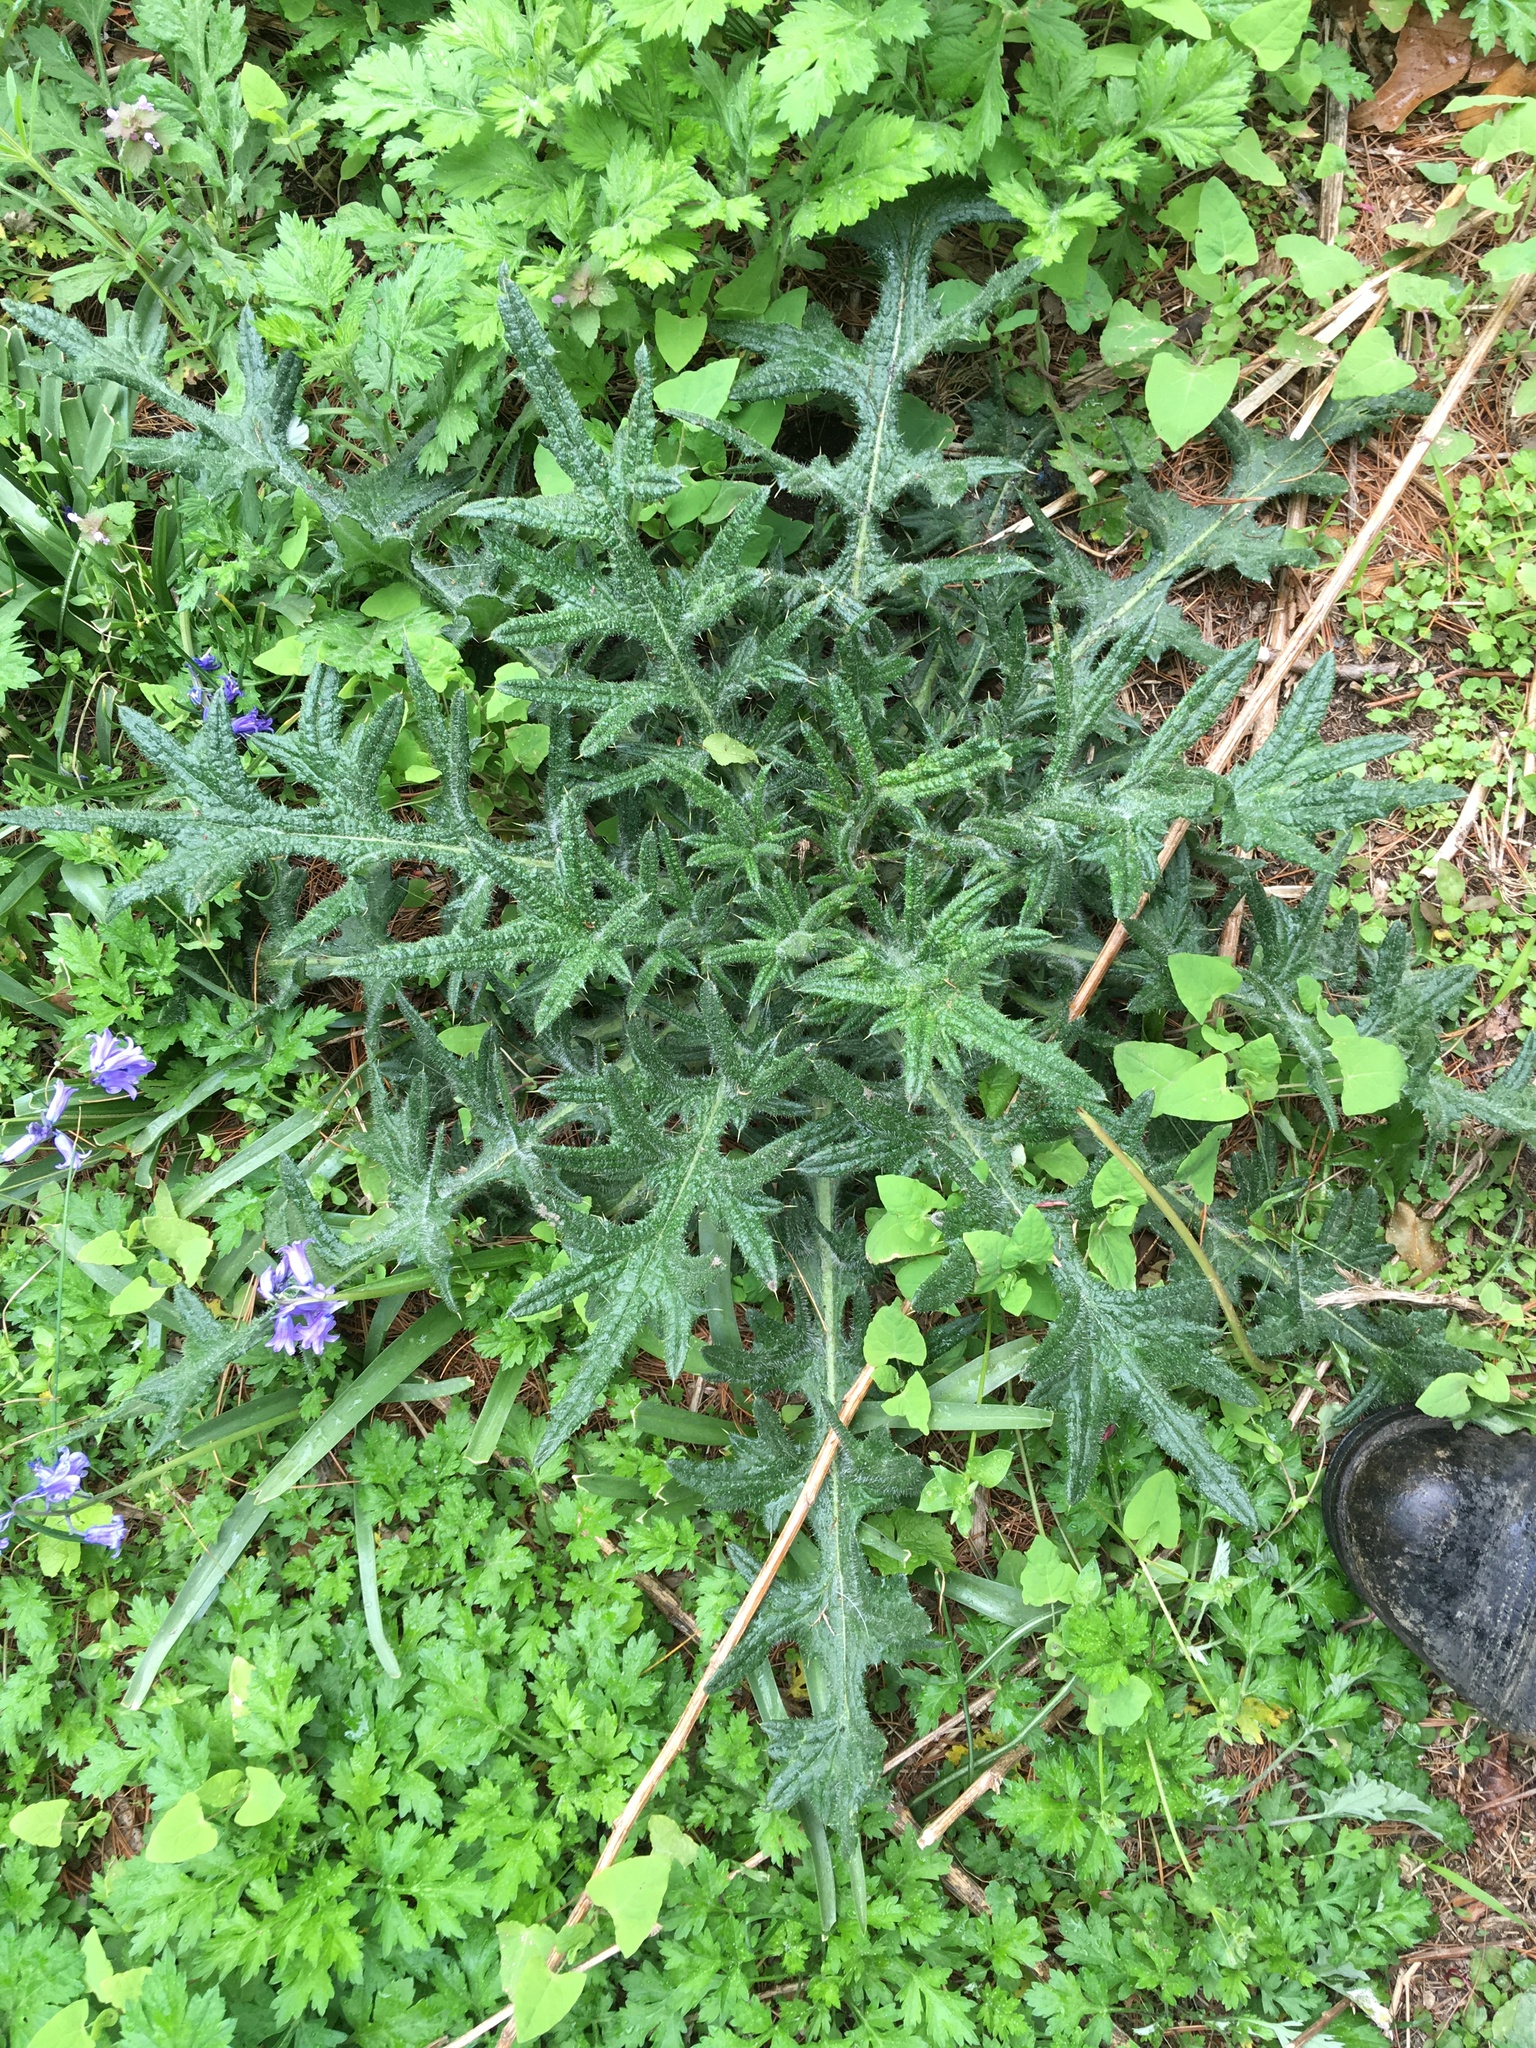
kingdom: Plantae
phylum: Tracheophyta
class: Magnoliopsida
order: Asterales
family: Asteraceae
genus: Cirsium
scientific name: Cirsium vulgare
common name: Bull thistle
